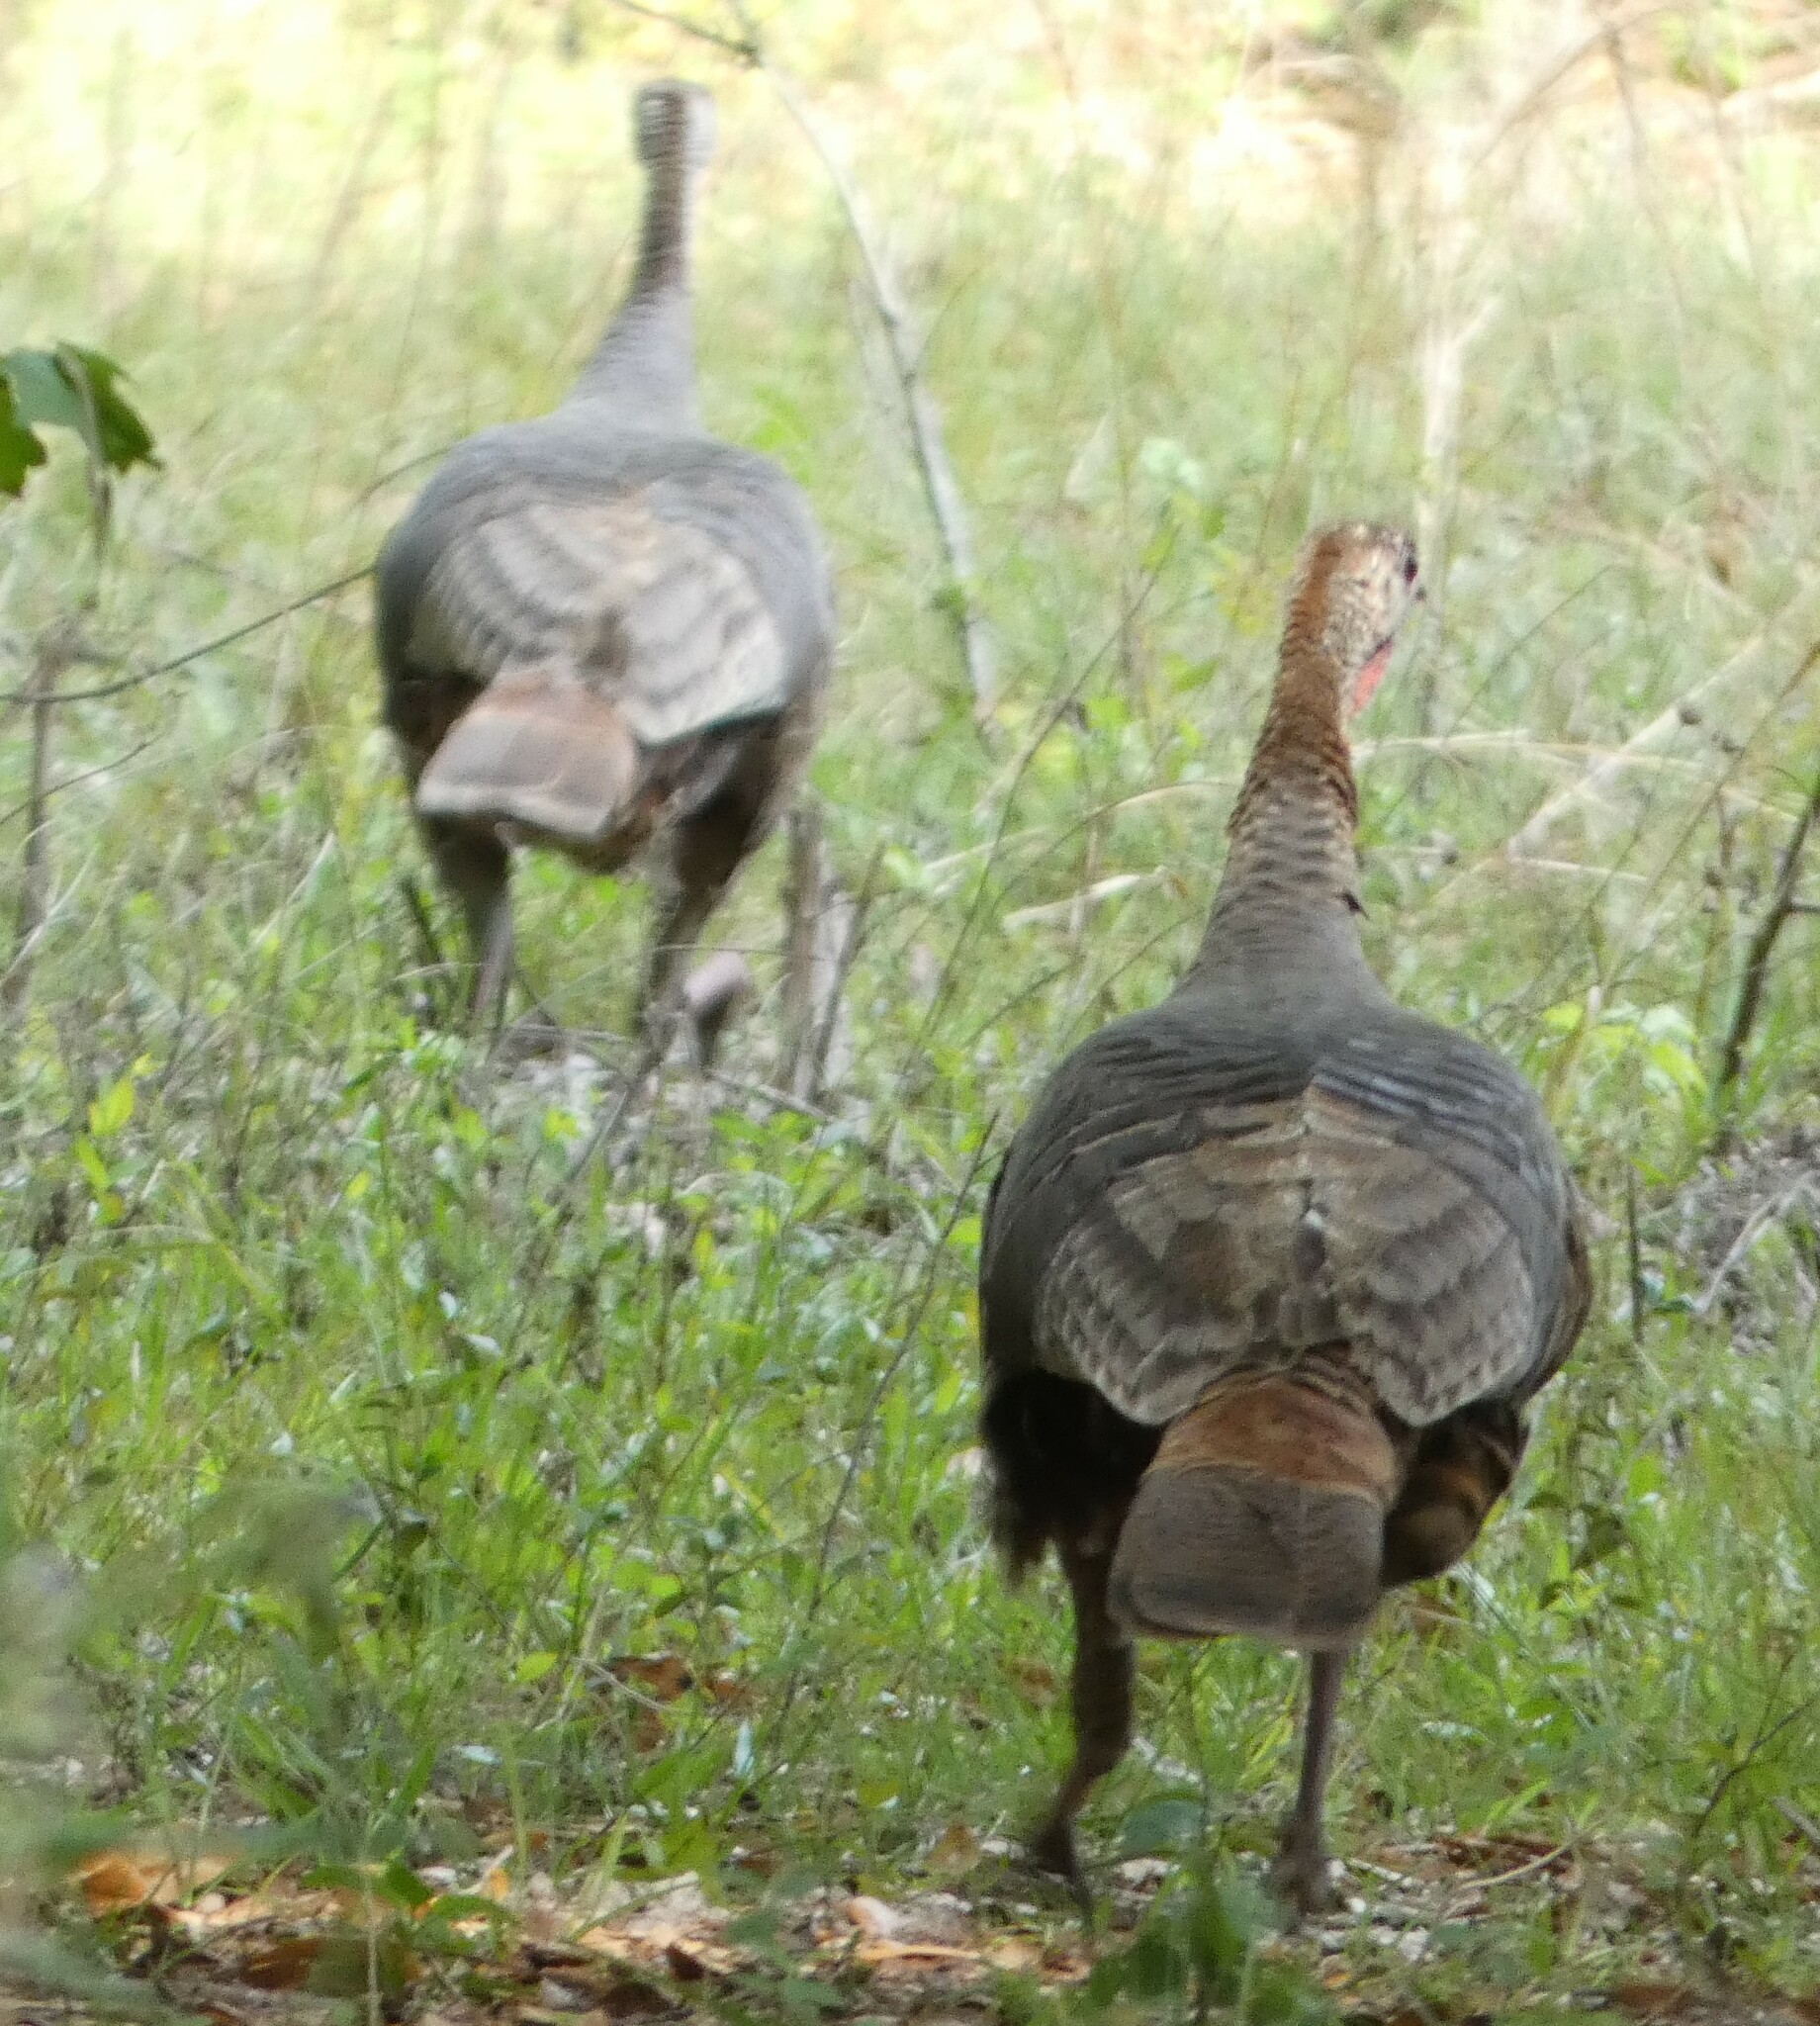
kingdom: Animalia
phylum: Chordata
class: Aves
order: Galliformes
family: Phasianidae
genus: Meleagris
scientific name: Meleagris gallopavo
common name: Wild turkey
